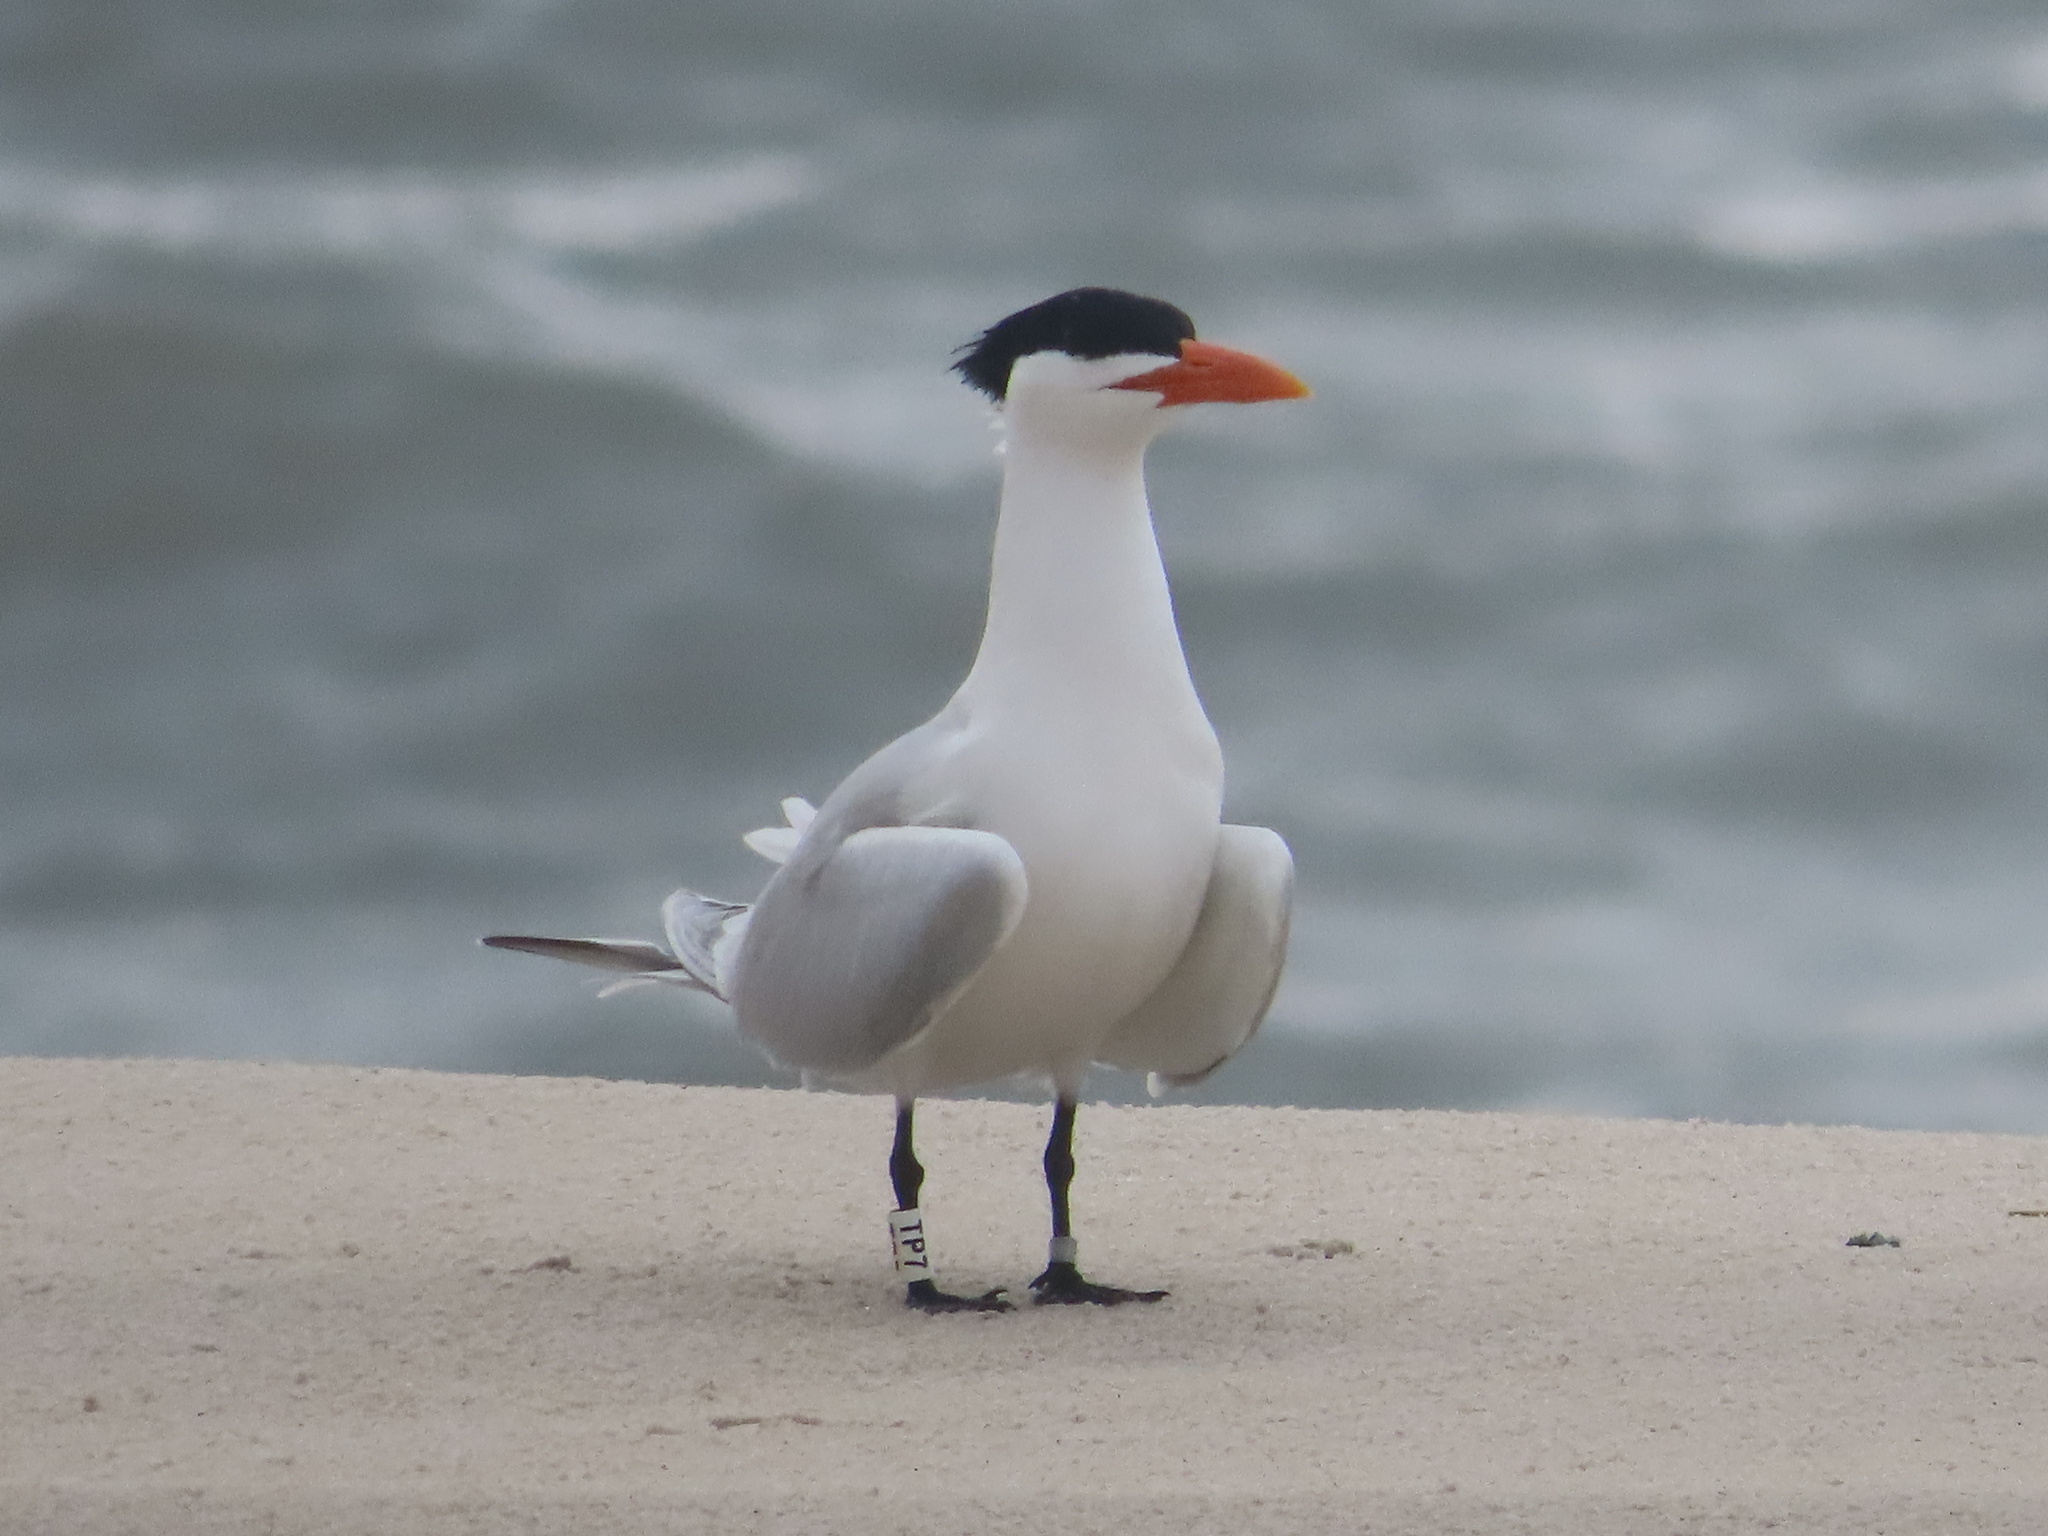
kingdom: Animalia
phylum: Chordata
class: Aves
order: Charadriiformes
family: Laridae
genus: Thalasseus
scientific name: Thalasseus maximus
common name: Royal tern
